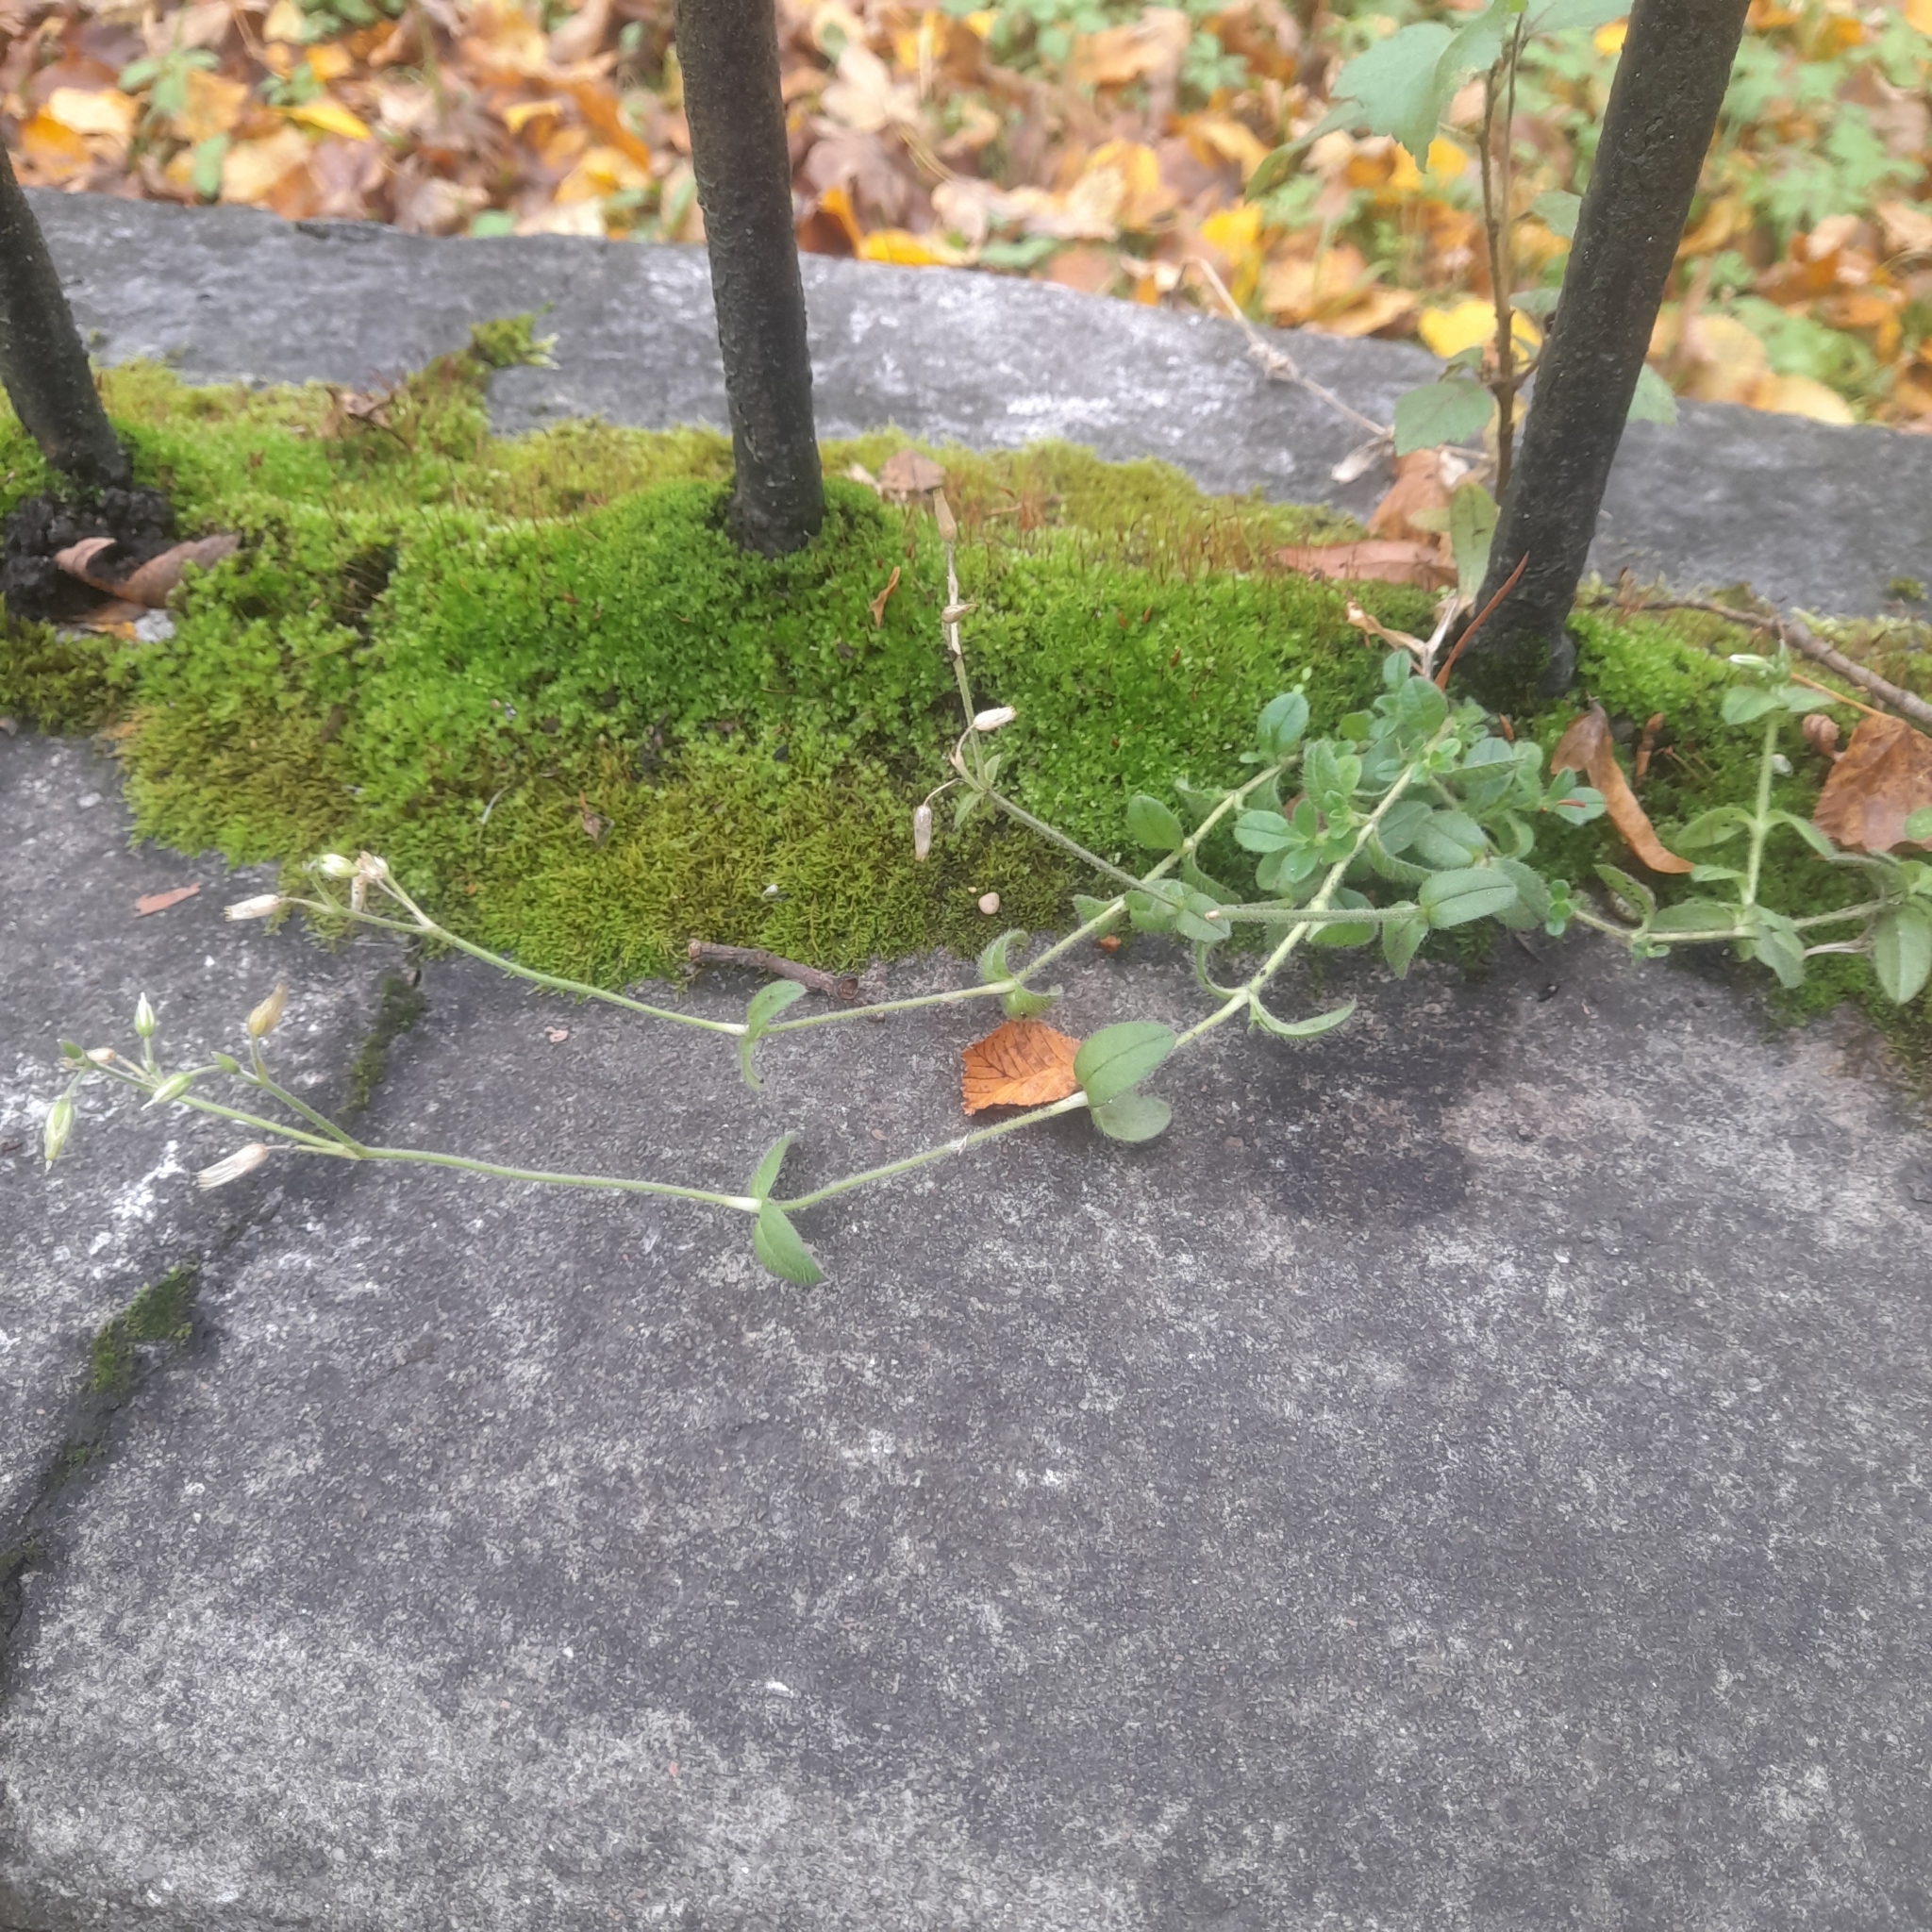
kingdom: Plantae
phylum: Tracheophyta
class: Magnoliopsida
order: Caryophyllales
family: Caryophyllaceae
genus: Cerastium
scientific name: Cerastium holosteoides
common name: Big chickweed
